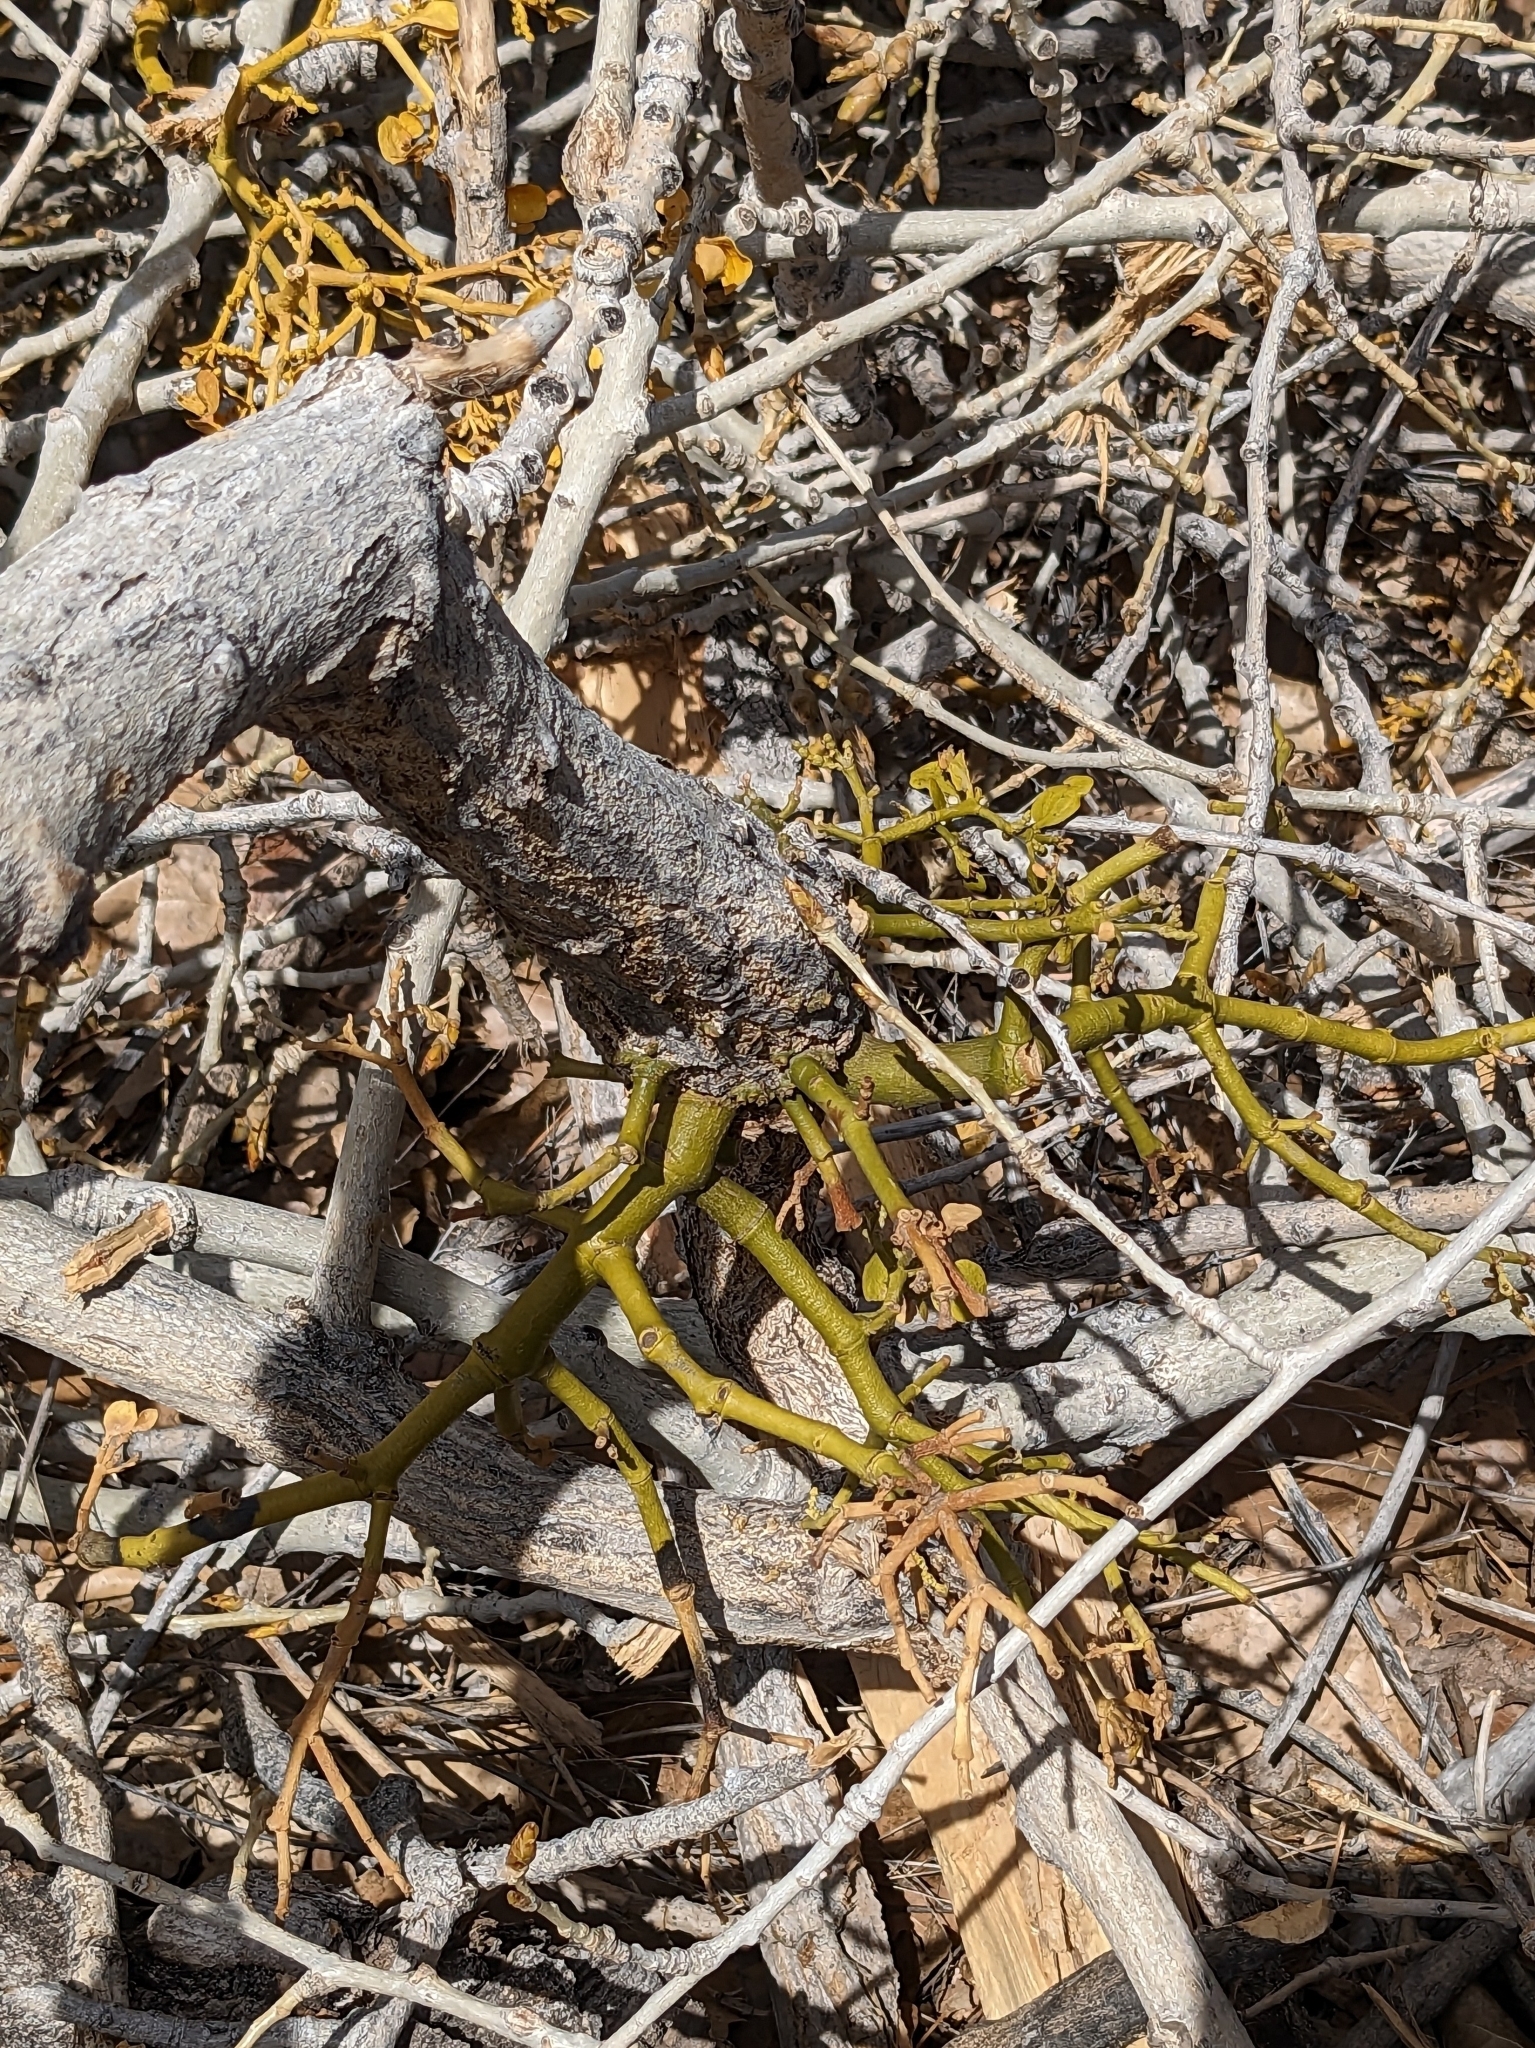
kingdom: Plantae
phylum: Tracheophyta
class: Magnoliopsida
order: Santalales
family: Viscaceae
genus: Phoradendron
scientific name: Phoradendron juniperinum
